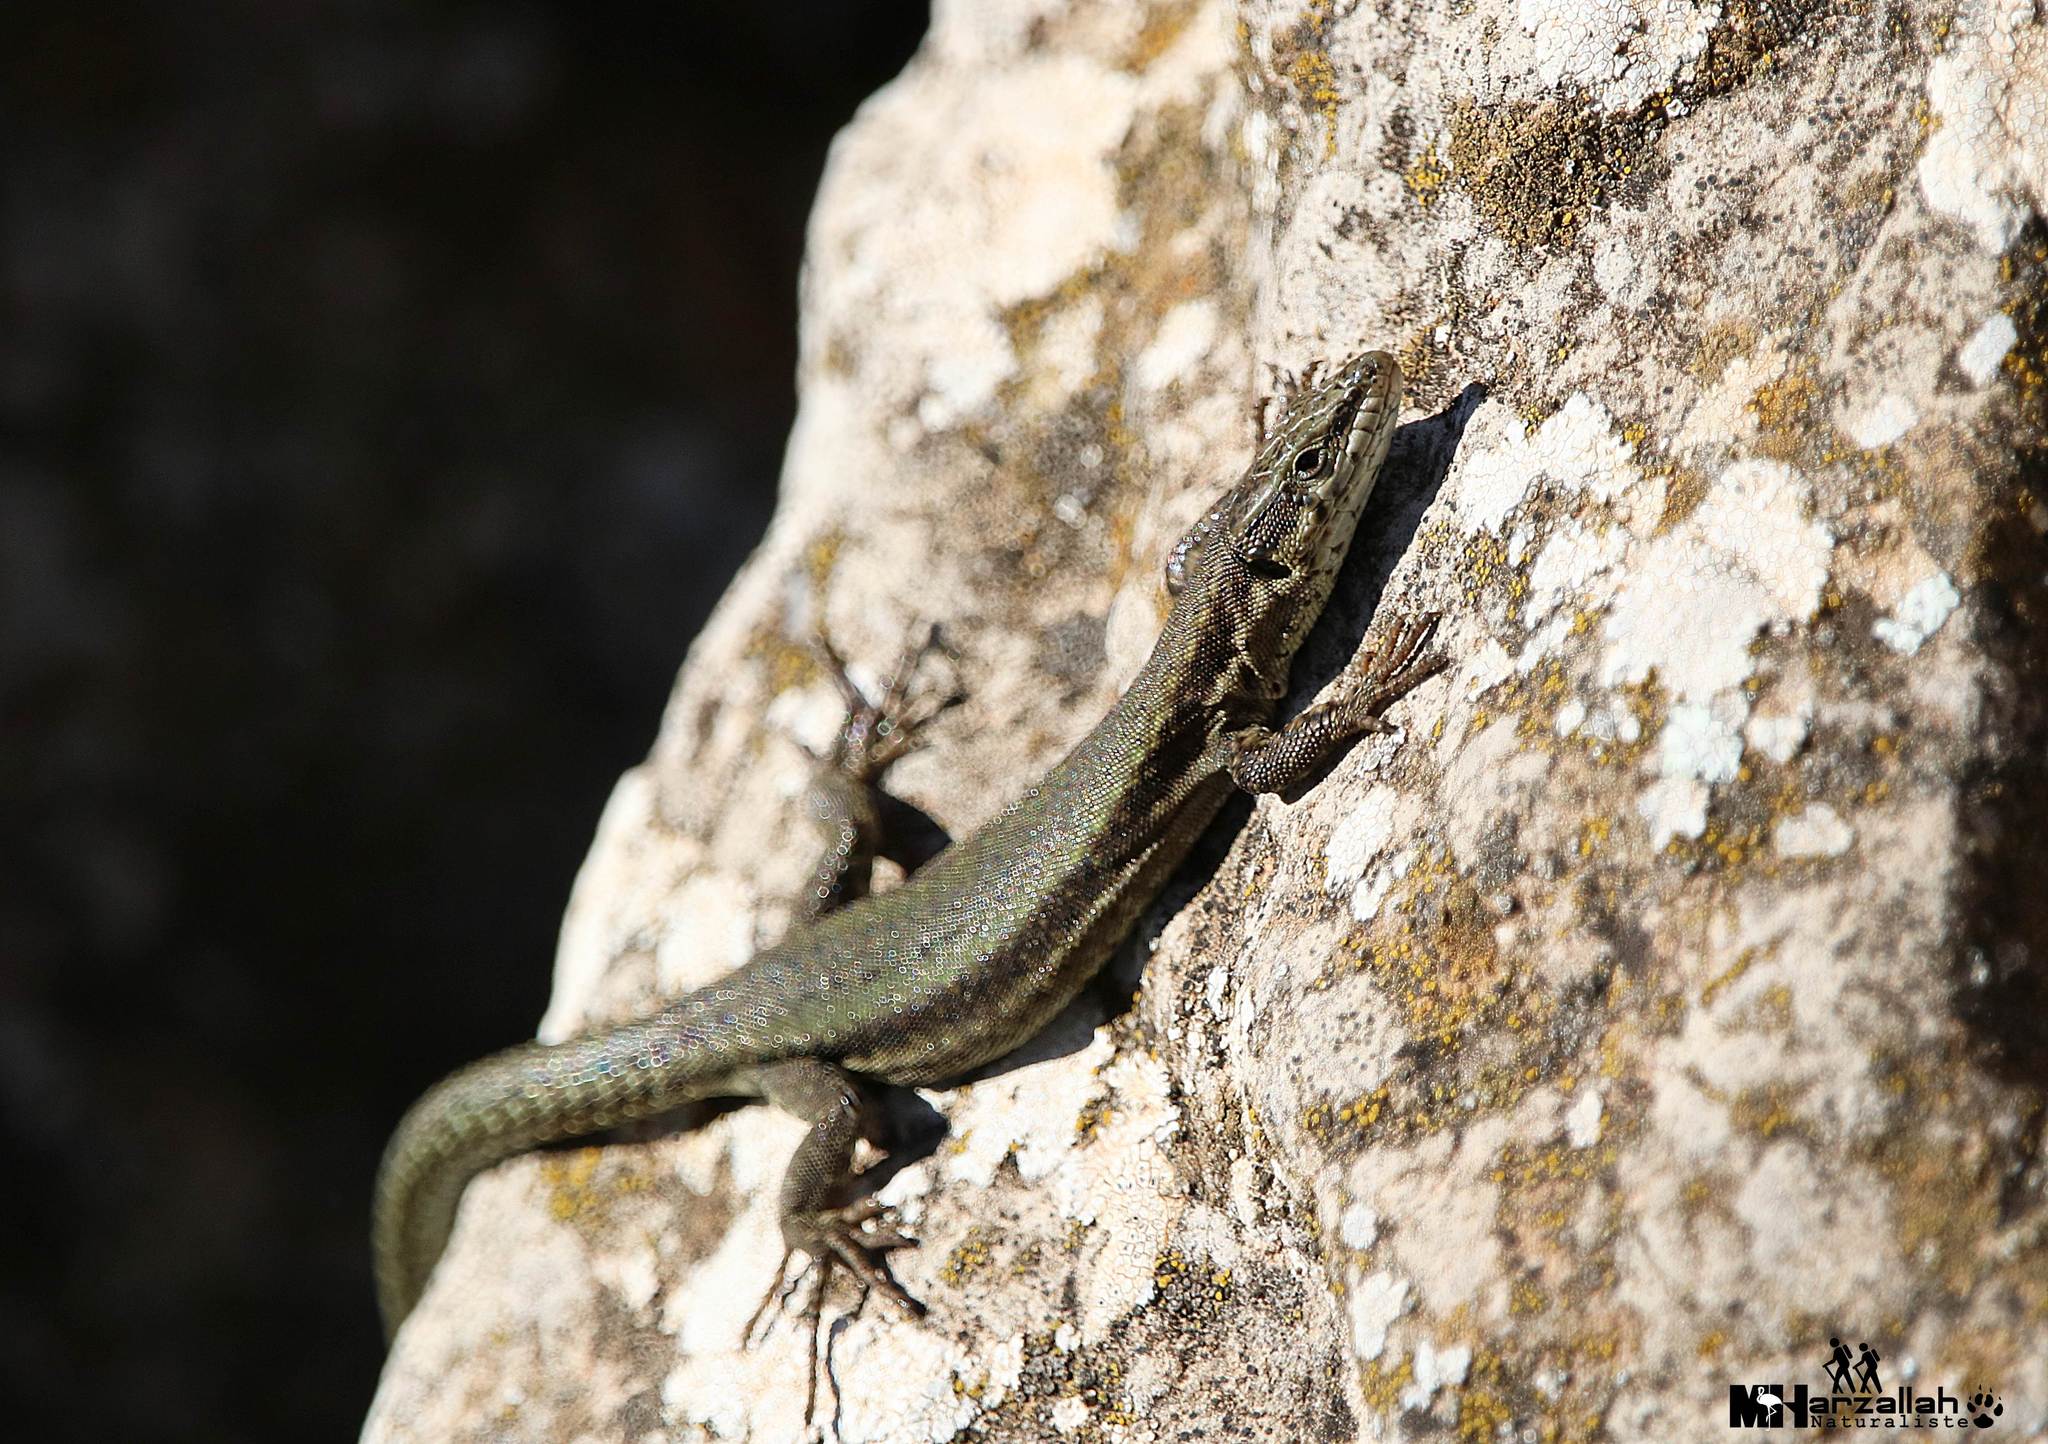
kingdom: Animalia
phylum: Chordata
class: Squamata
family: Lacertidae
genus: Podarcis
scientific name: Podarcis vaucheri
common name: Vaucher's wall lizard
